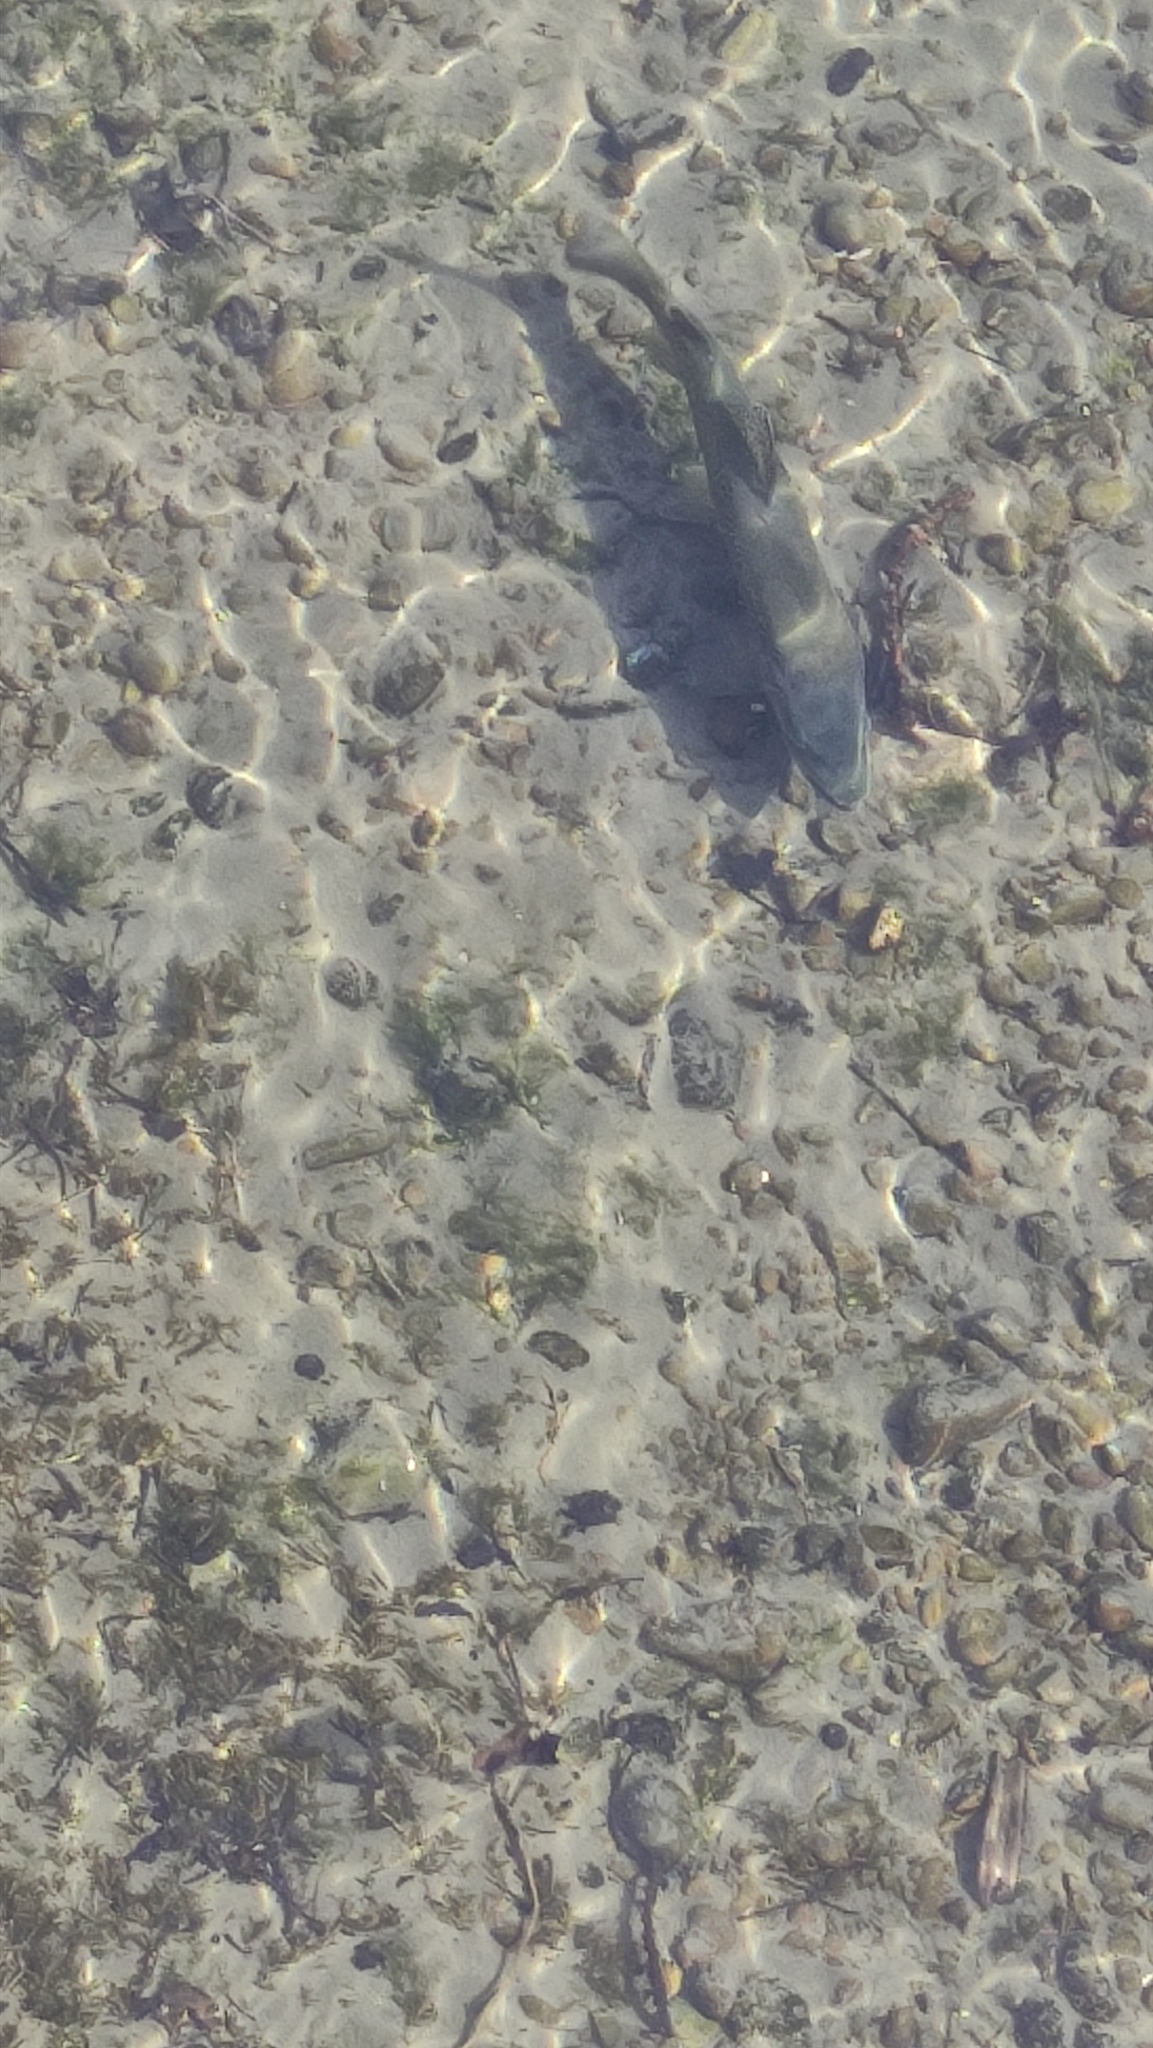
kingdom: Animalia
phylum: Chordata
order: Salmoniformes
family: Salmonidae
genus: Salmo
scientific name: Salmo trutta
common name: Brown trout
